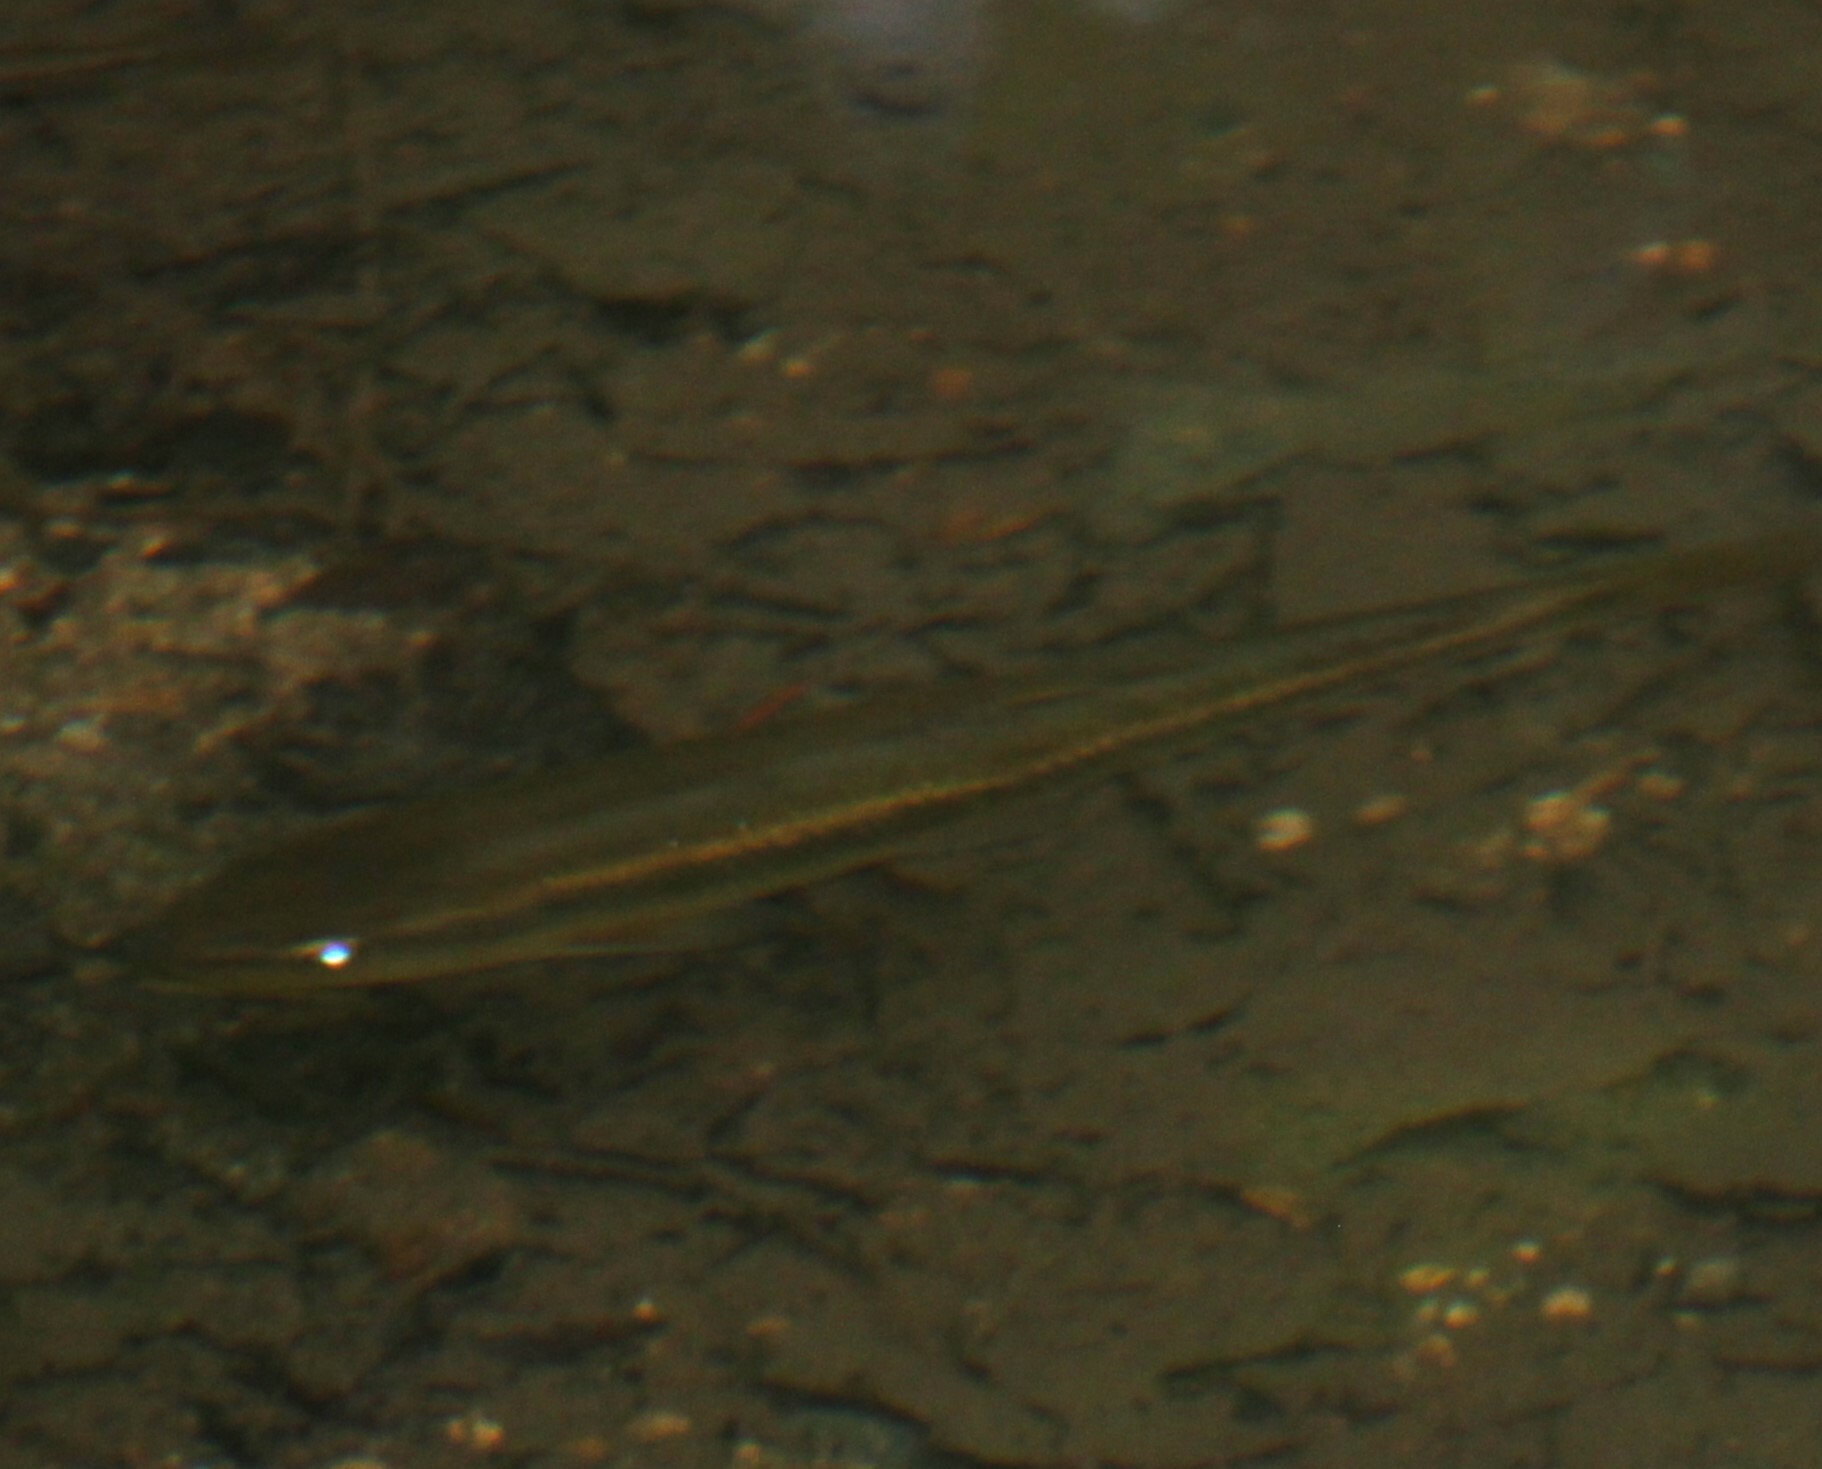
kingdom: Animalia
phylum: Chordata
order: Cypriniformes
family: Cyprinidae
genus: Semotilus
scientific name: Semotilus atromaculatus
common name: Creek chub
